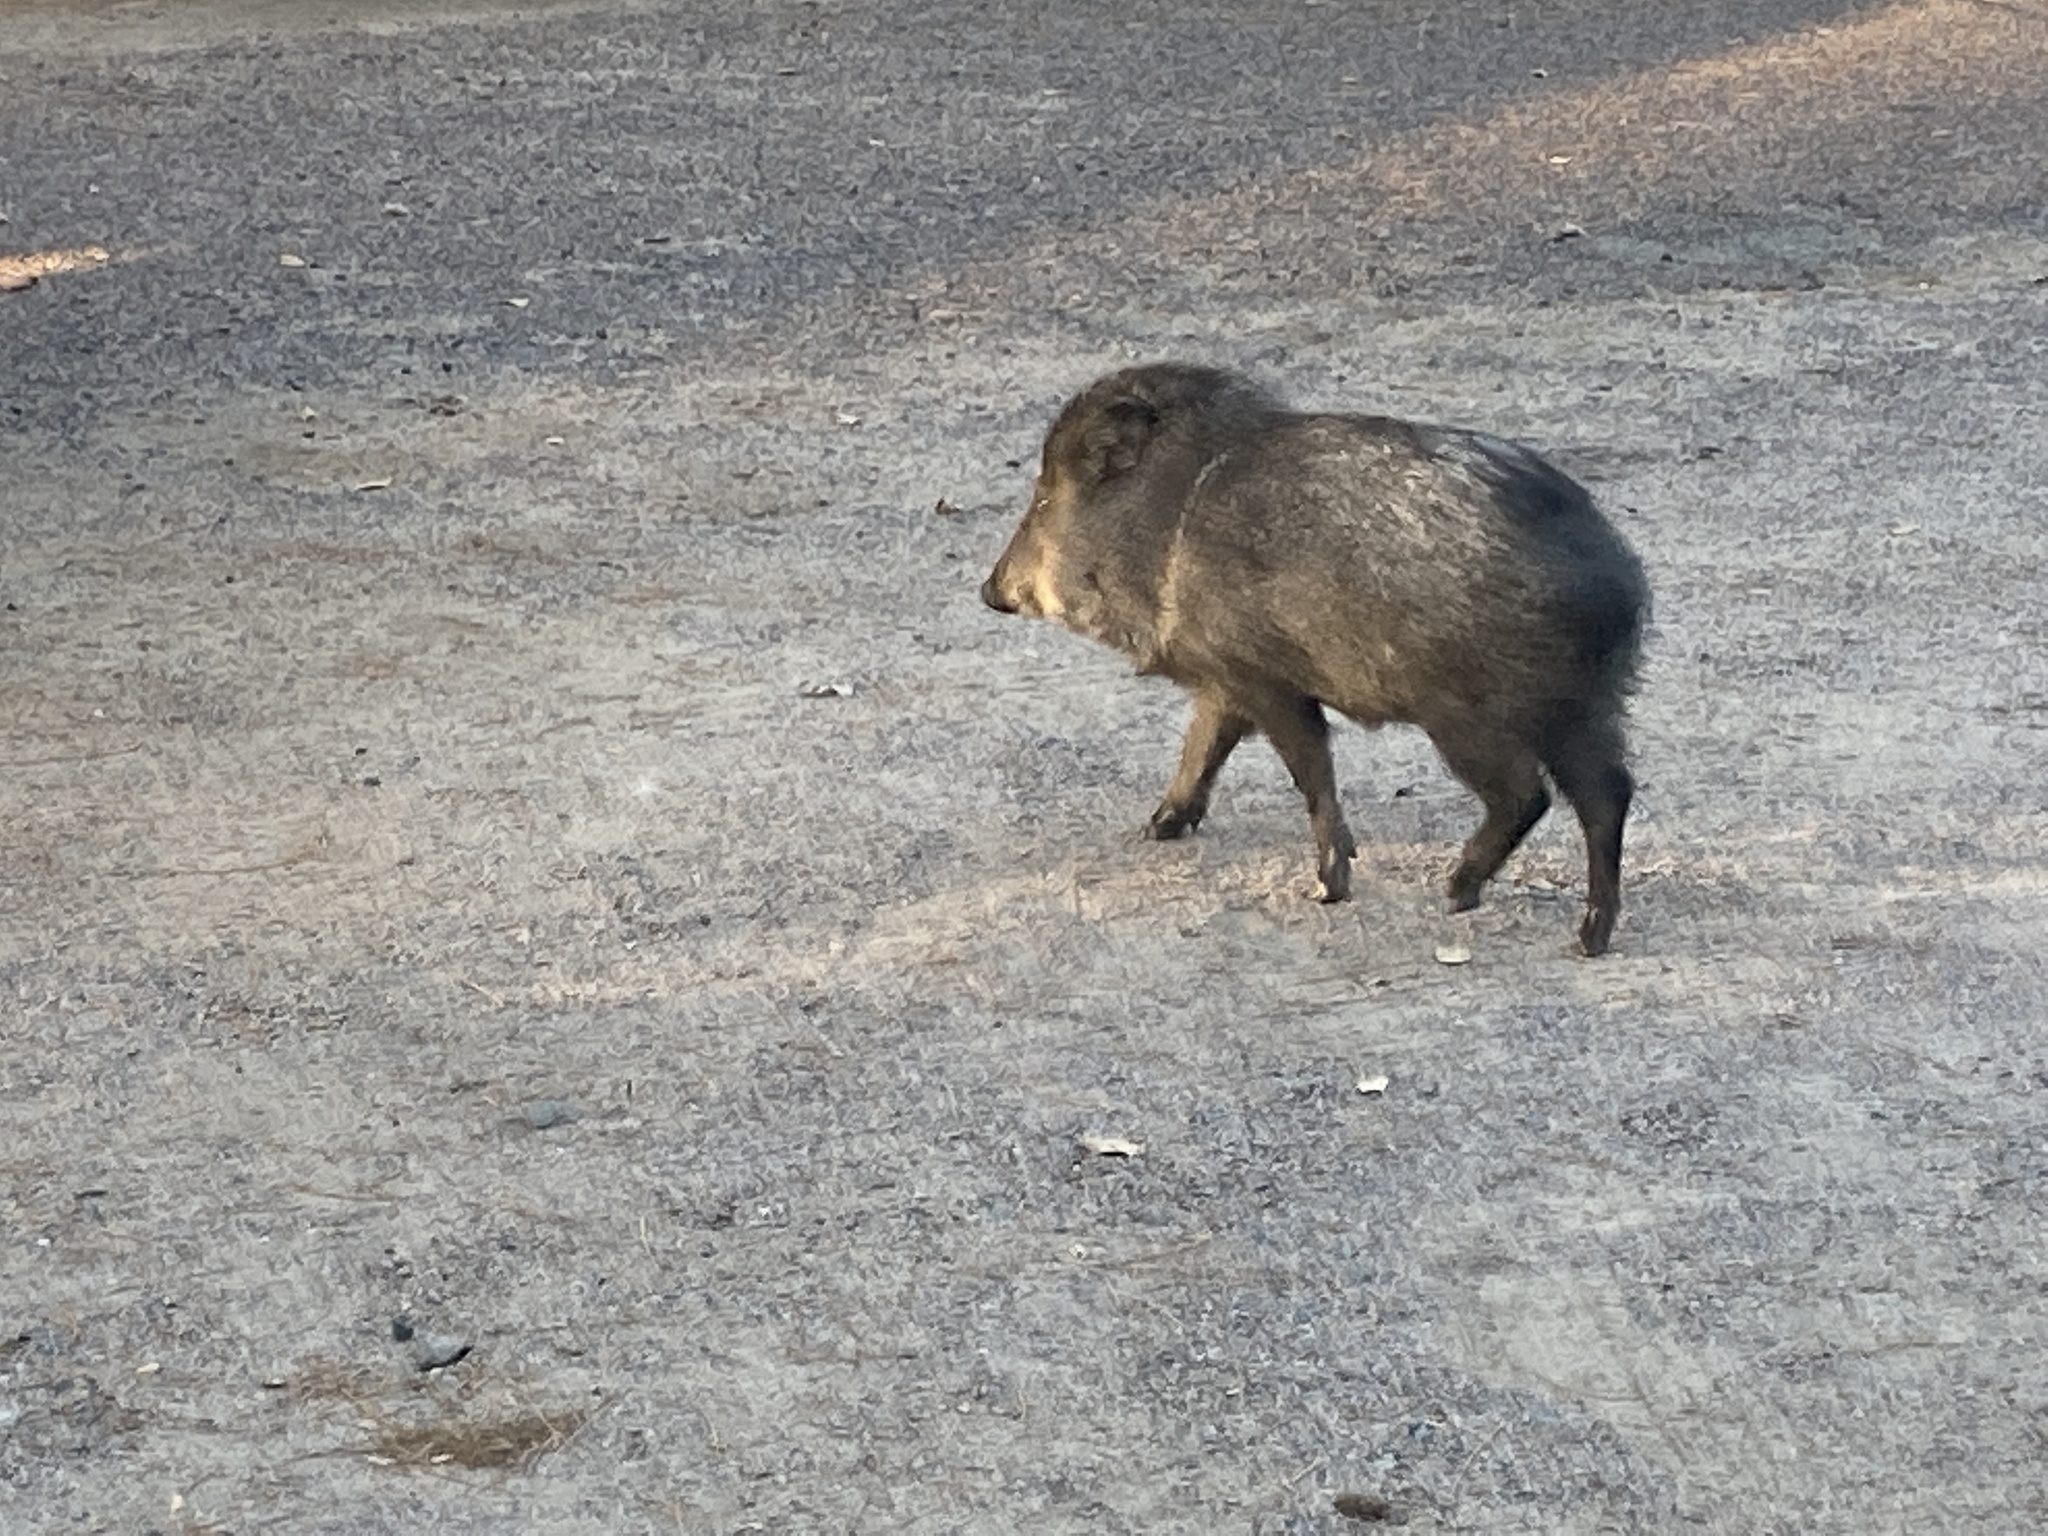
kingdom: Animalia
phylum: Chordata
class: Mammalia
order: Artiodactyla
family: Tayassuidae
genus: Pecari
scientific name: Pecari tajacu
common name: Collared peccary
